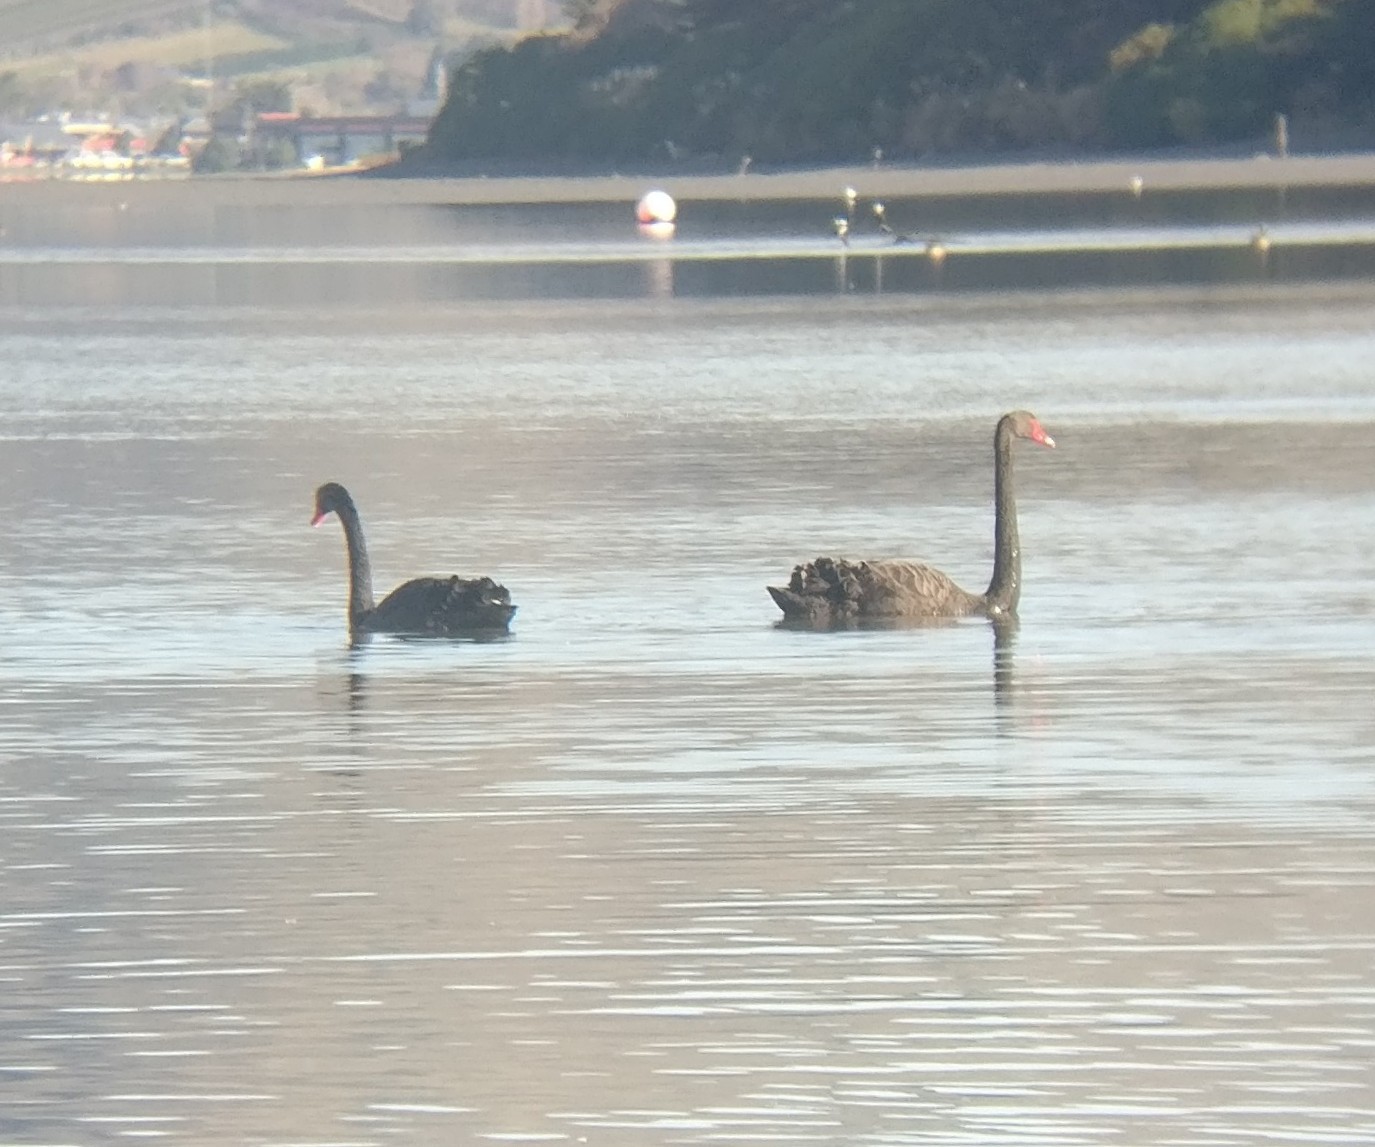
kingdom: Animalia
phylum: Chordata
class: Aves
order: Anseriformes
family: Anatidae
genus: Cygnus
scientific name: Cygnus atratus
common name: Black swan
